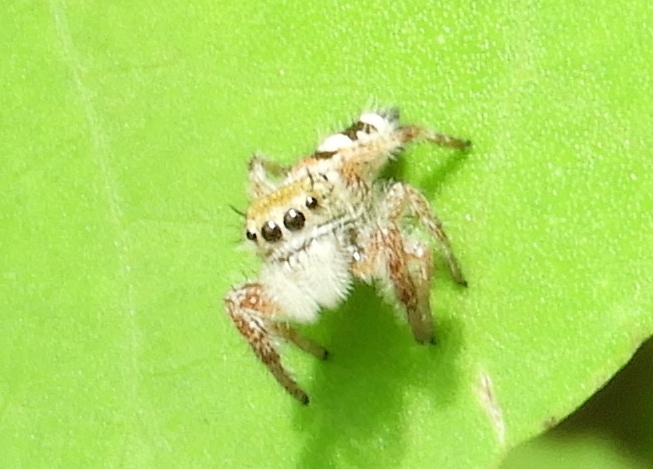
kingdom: Animalia
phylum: Arthropoda
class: Arachnida
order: Araneae
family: Salticidae
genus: Phidippus
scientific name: Phidippus pacosauritus
